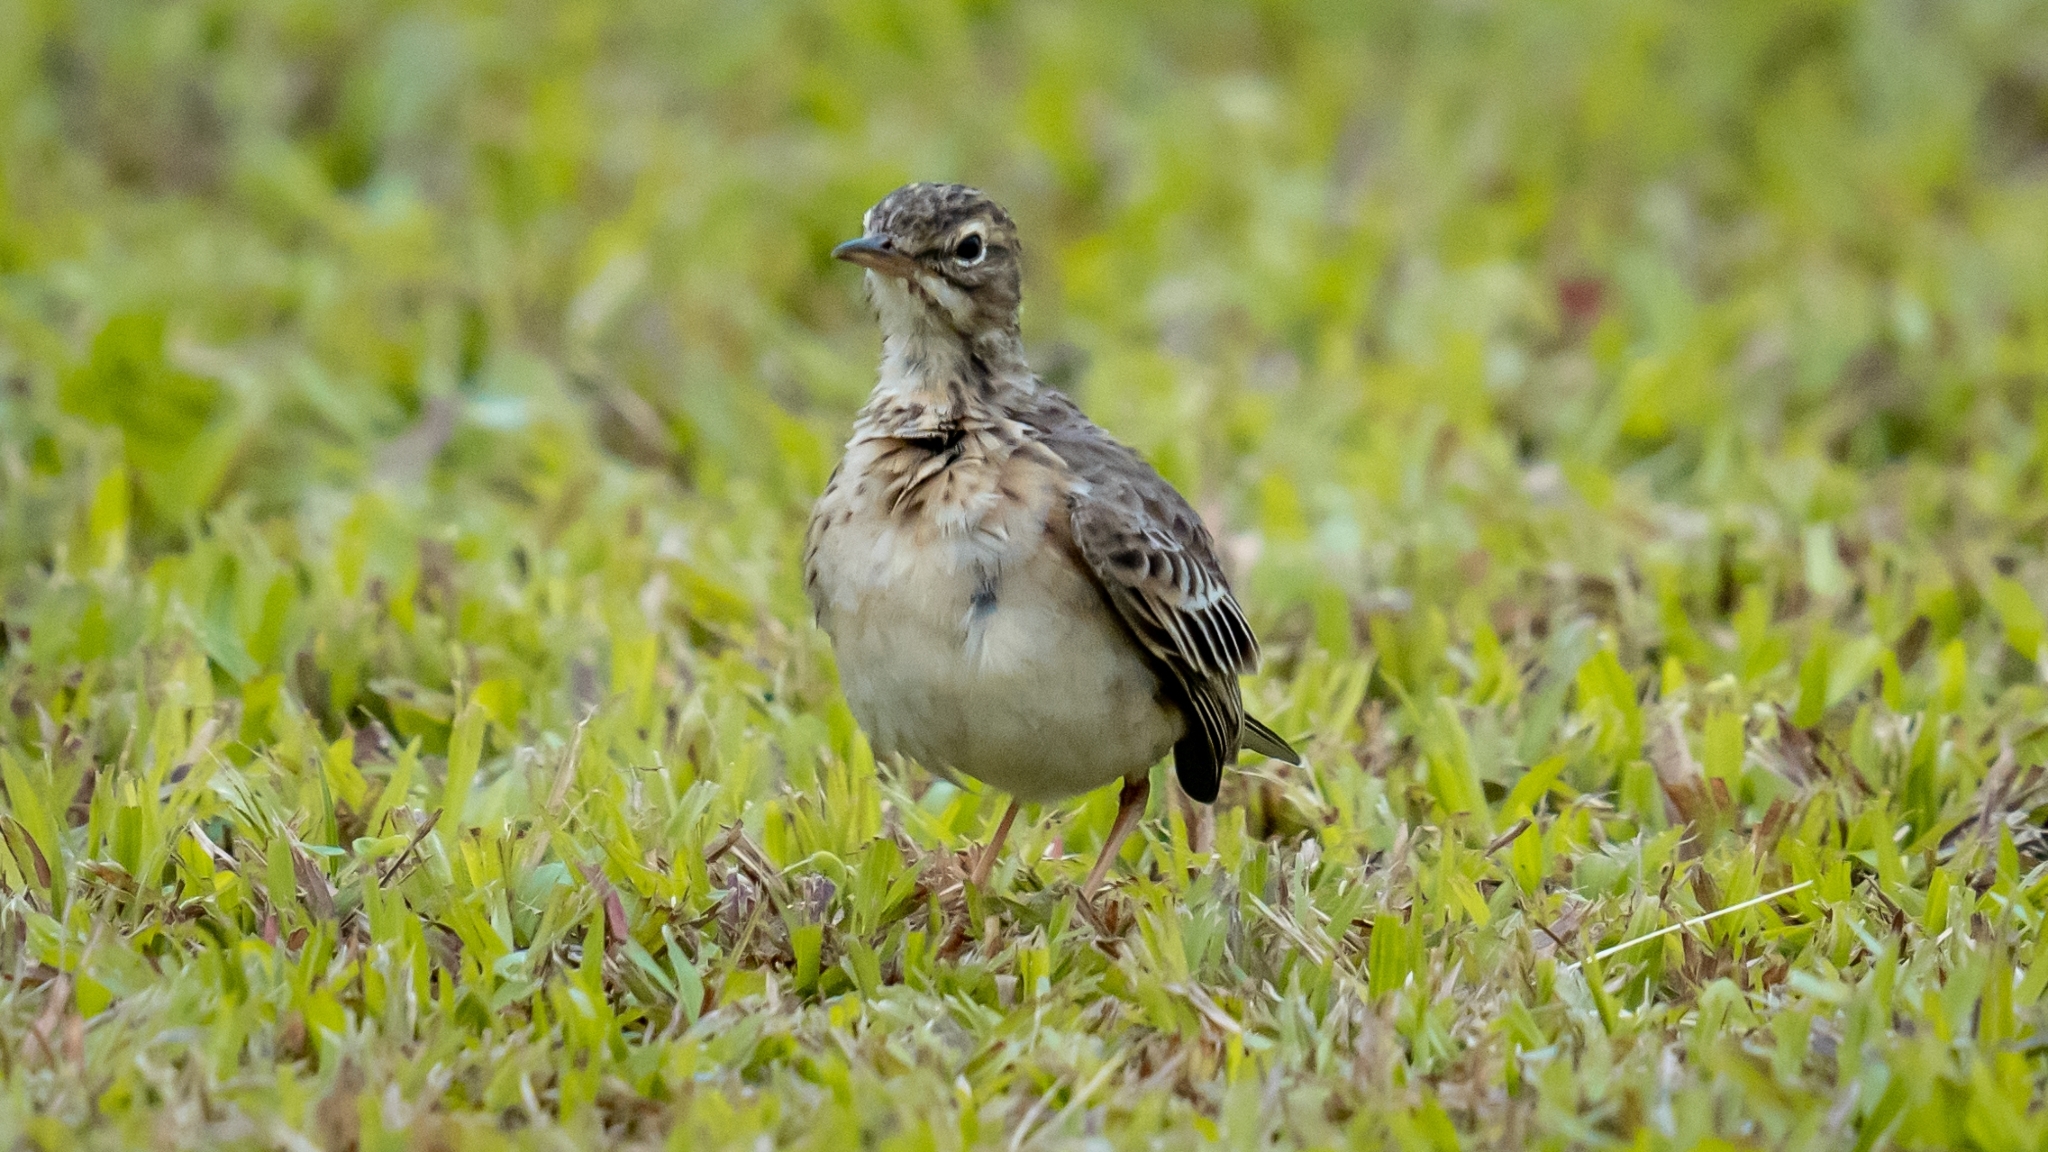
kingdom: Animalia
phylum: Chordata
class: Aves
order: Passeriformes
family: Motacillidae
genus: Anthus
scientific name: Anthus rufulus
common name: Paddyfield pipit
